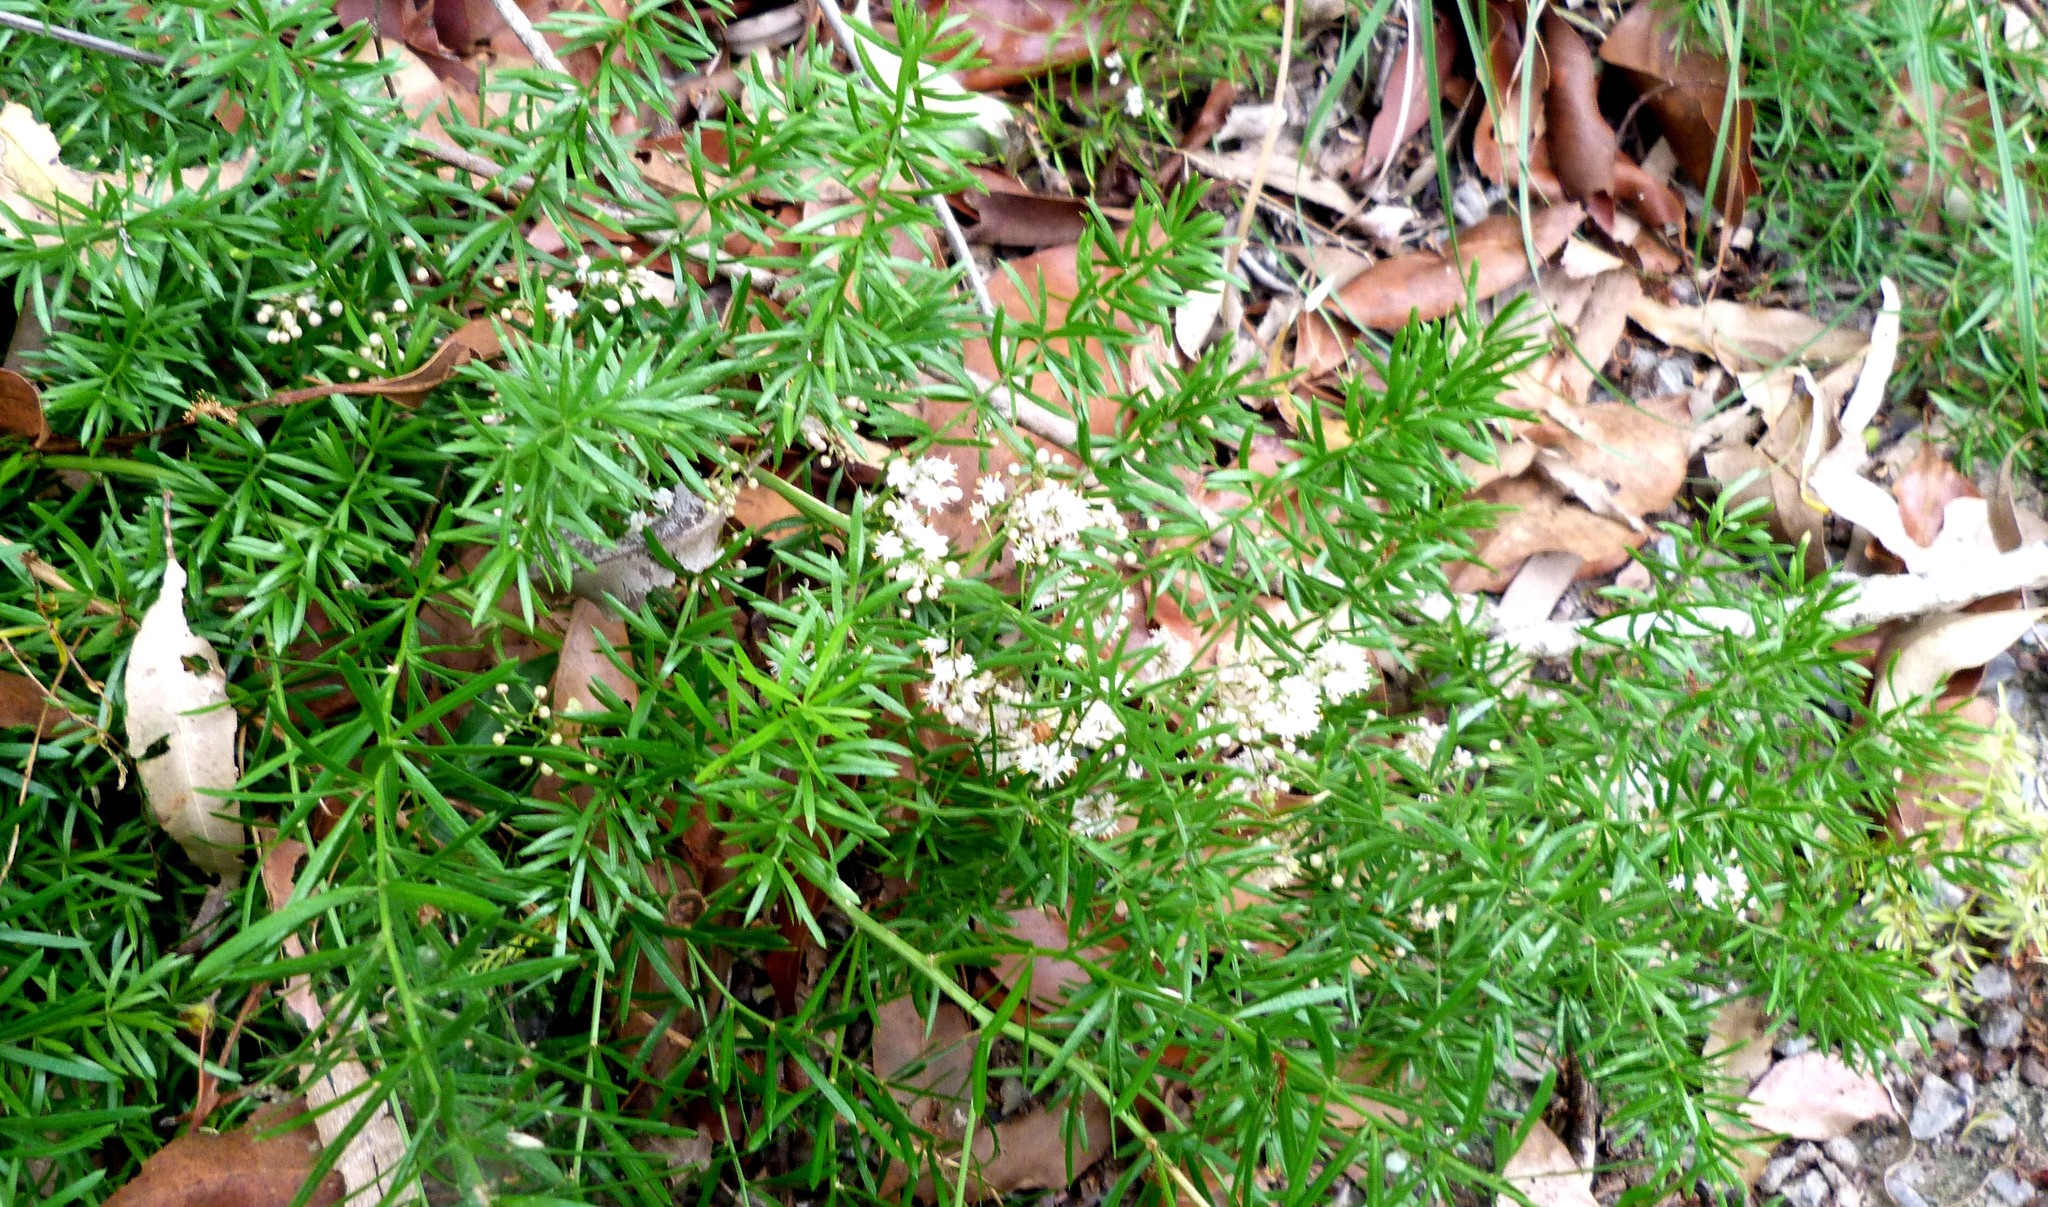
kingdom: Plantae
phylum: Tracheophyta
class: Liliopsida
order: Asparagales
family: Asparagaceae
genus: Asparagus
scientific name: Asparagus aethiopicus
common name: Sprenger's asparagus fern
